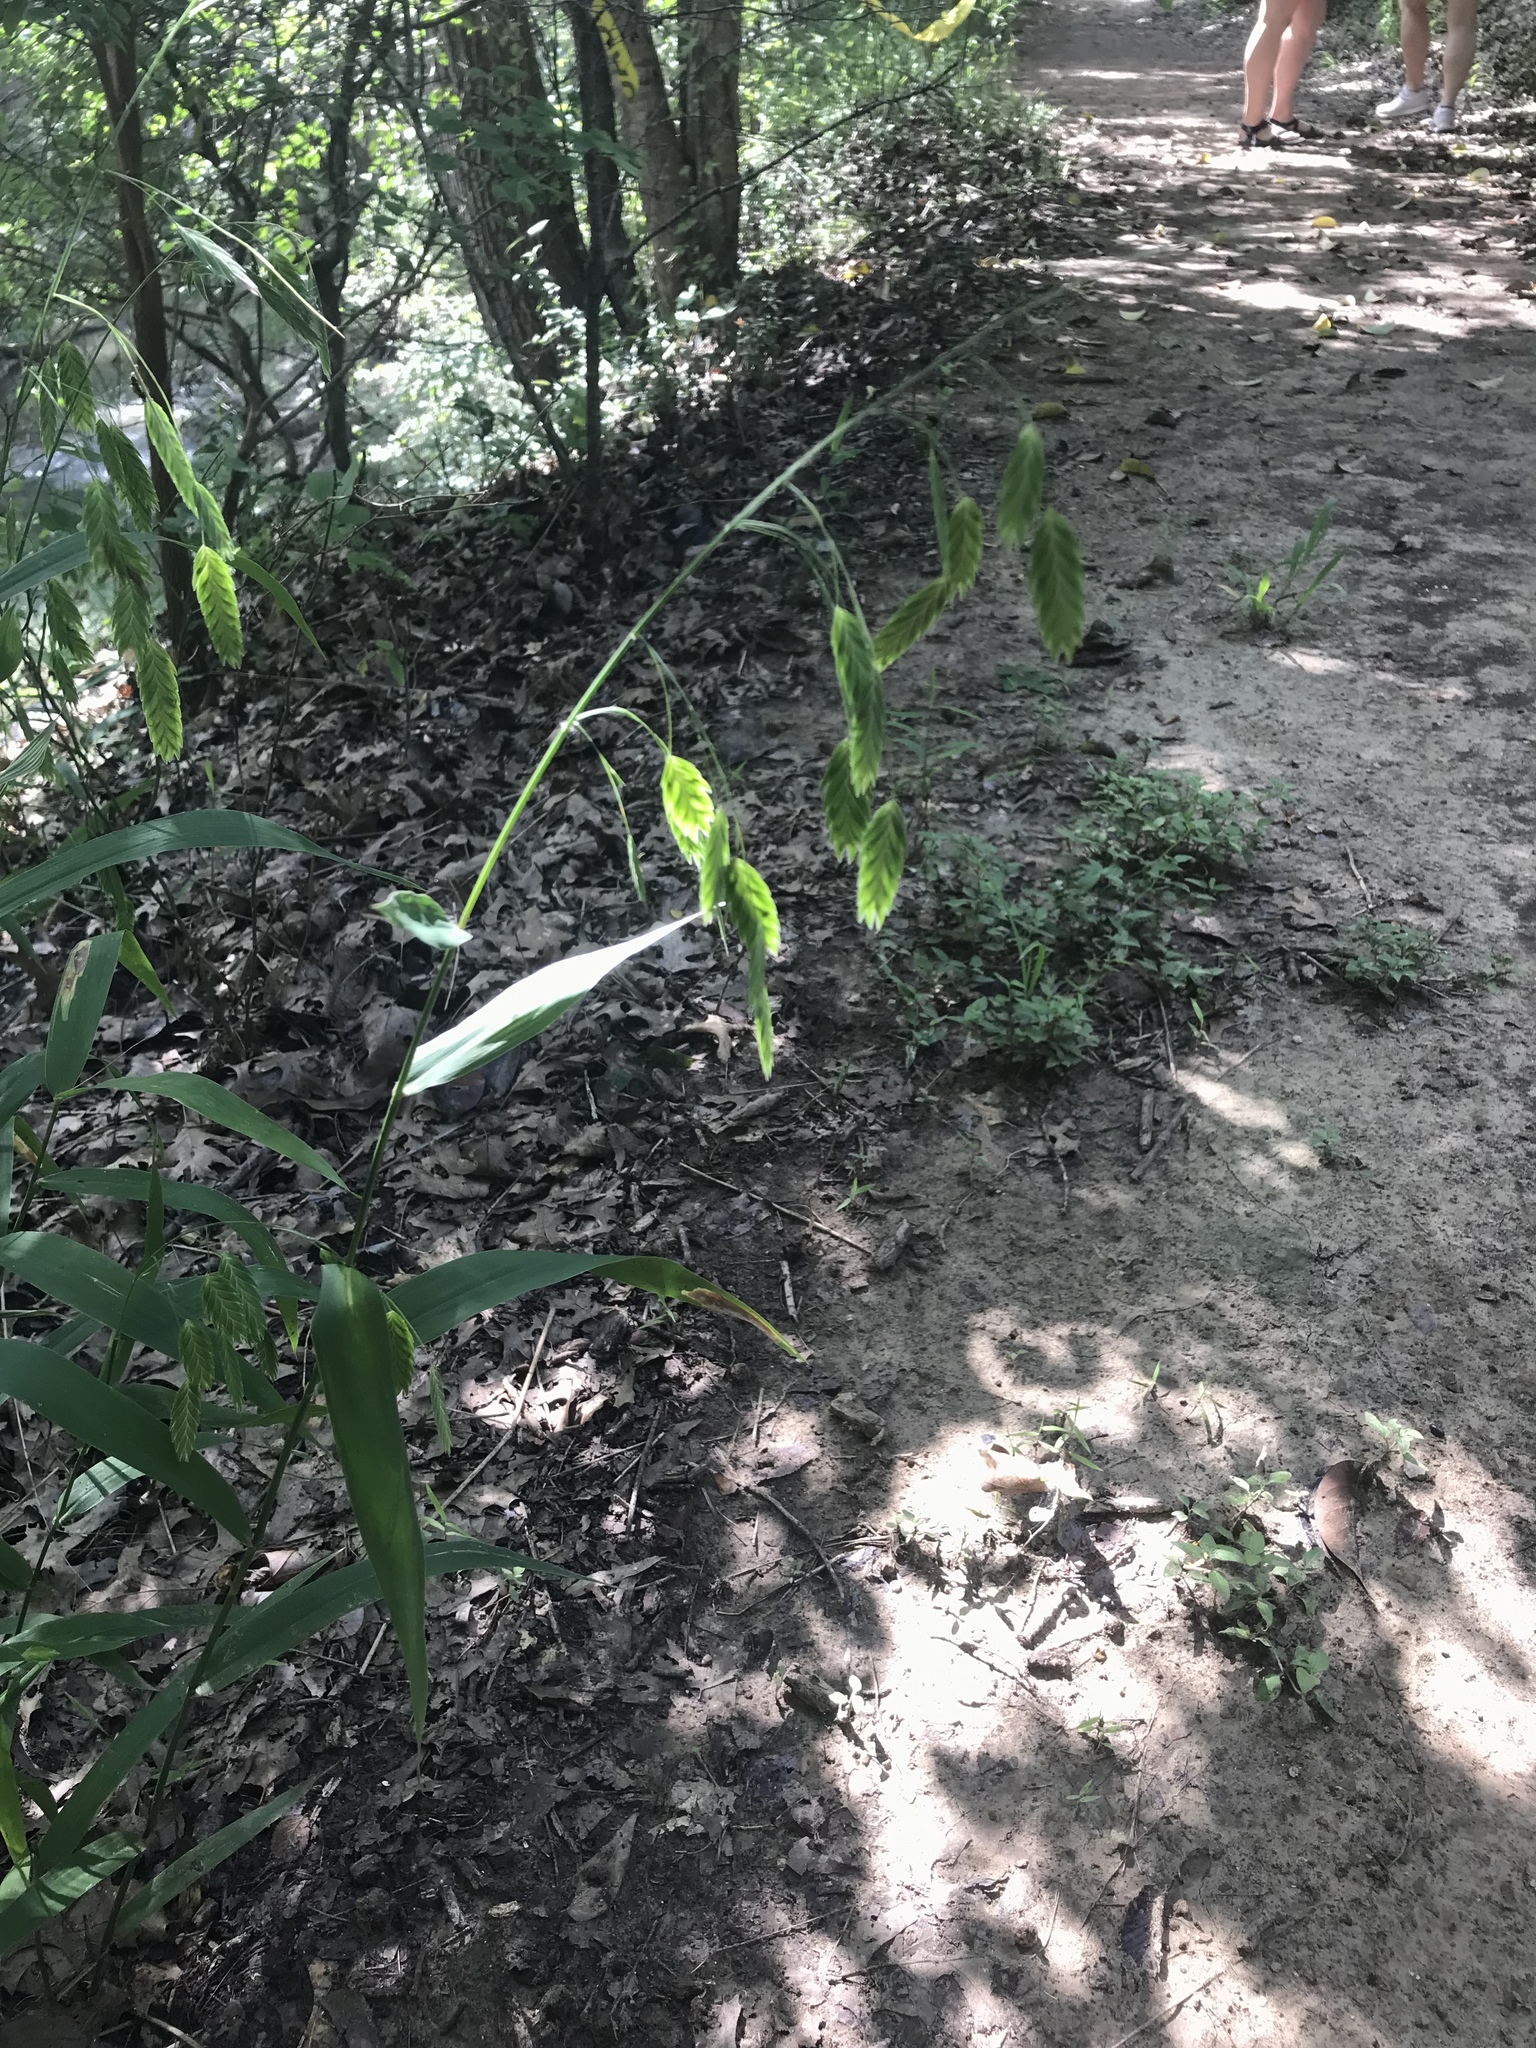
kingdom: Plantae
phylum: Tracheophyta
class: Liliopsida
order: Poales
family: Poaceae
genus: Chasmanthium
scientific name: Chasmanthium latifolium
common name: Broad-leaved chasmanthium
